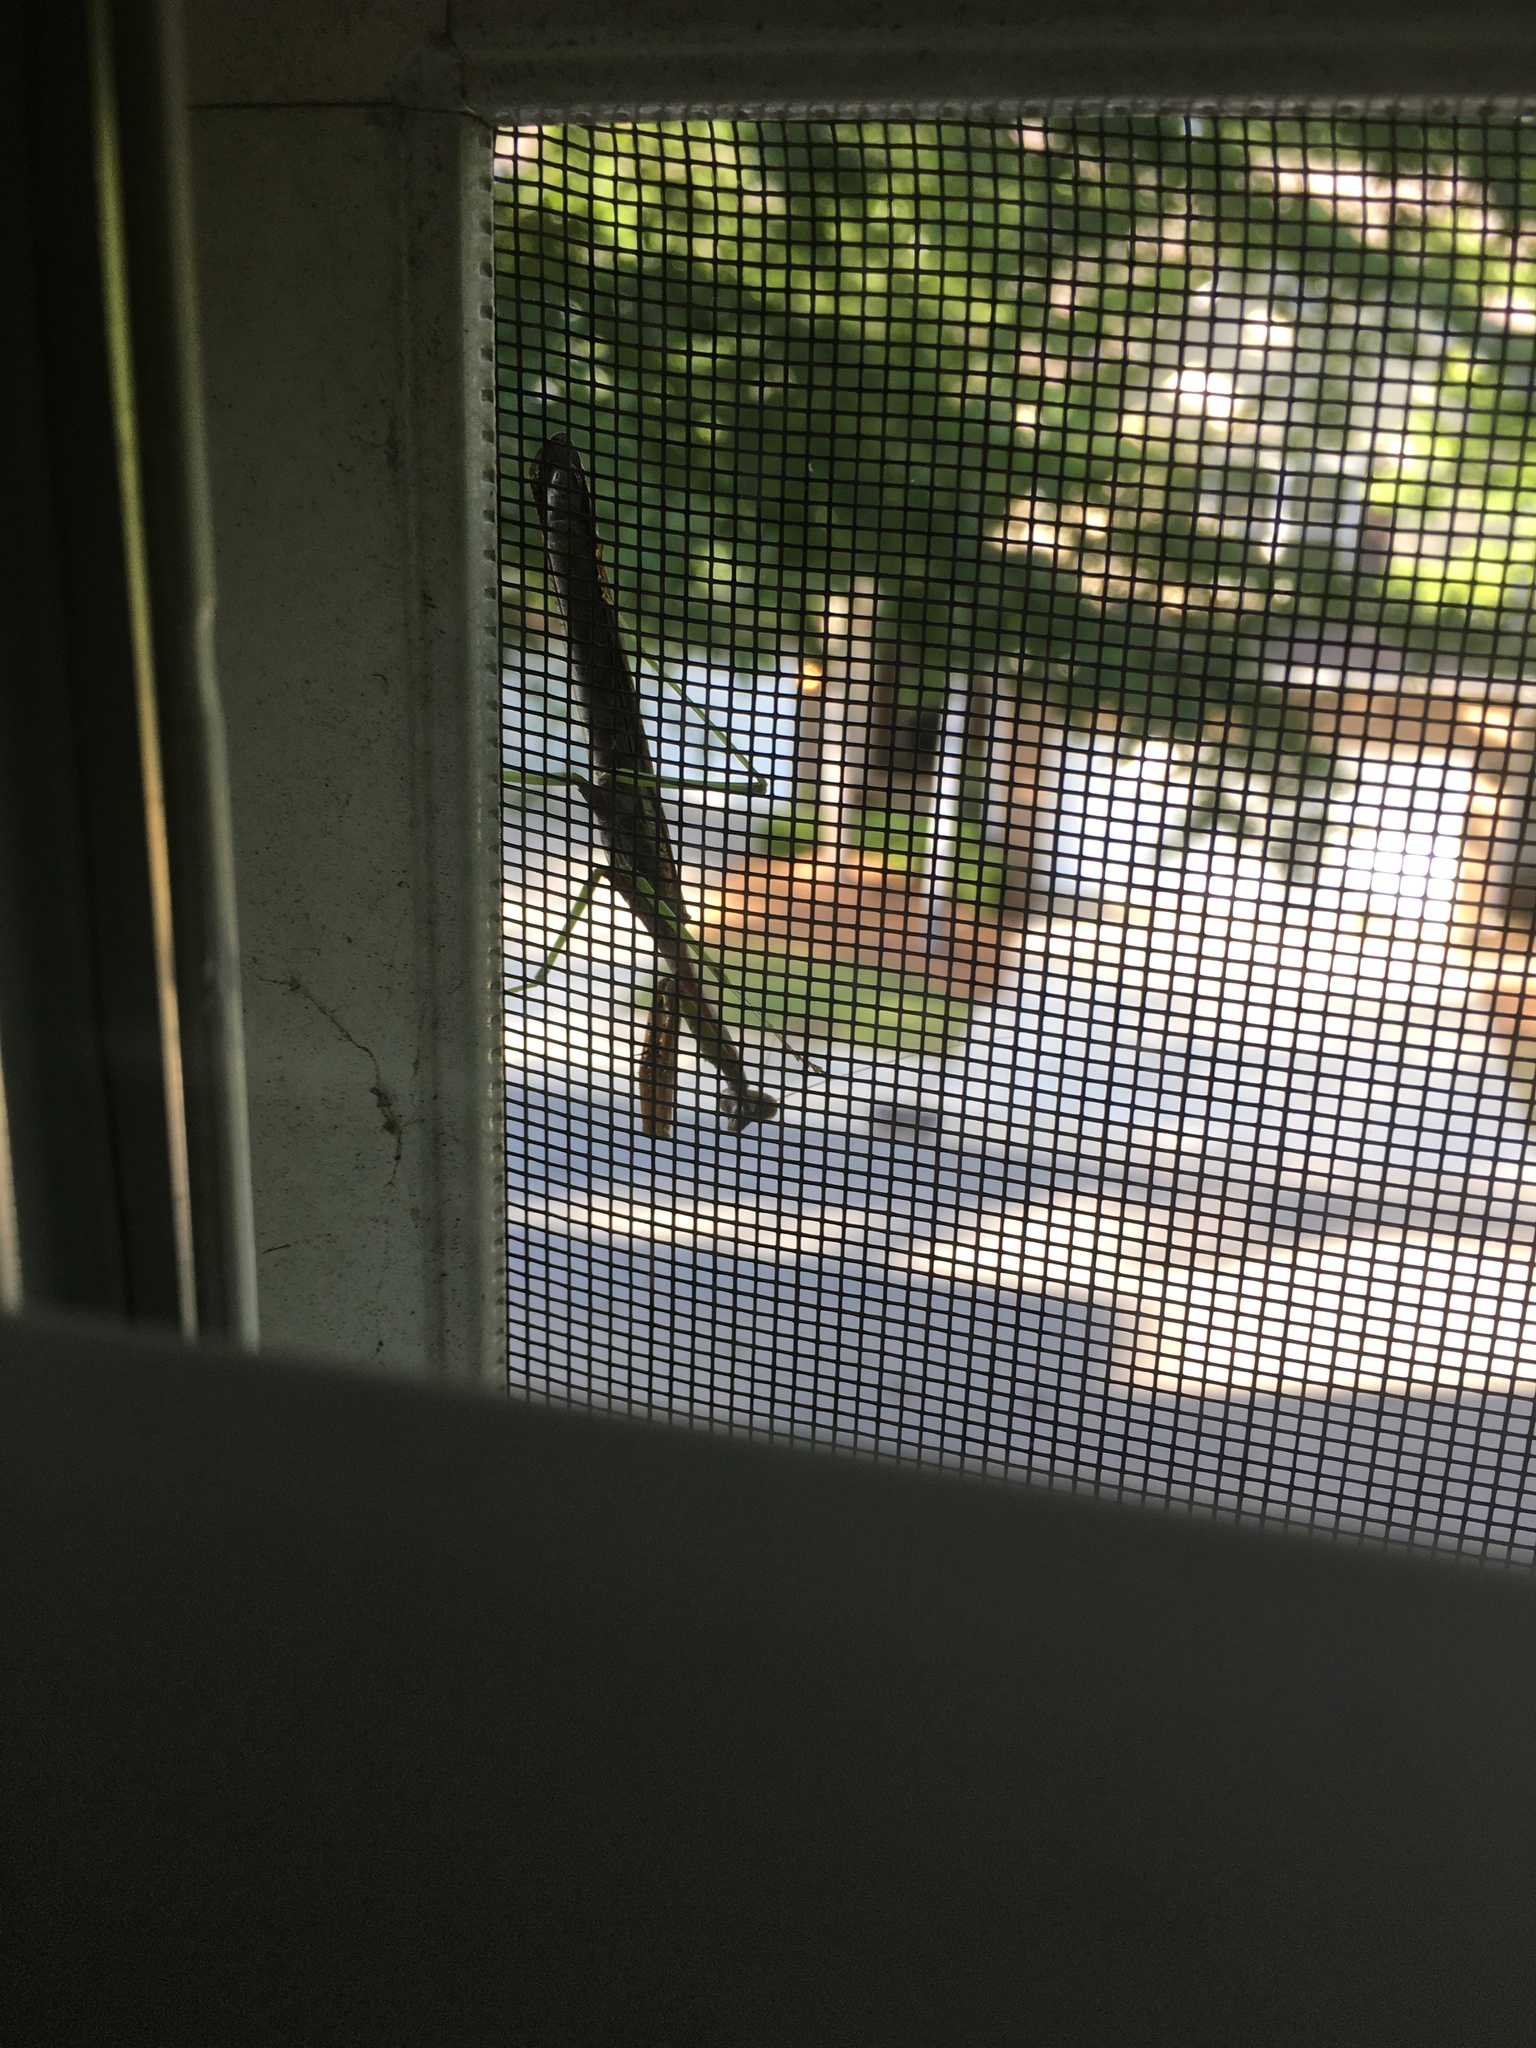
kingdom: Animalia
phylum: Arthropoda
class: Insecta
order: Mantodea
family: Mantidae
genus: Stagmomantis
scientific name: Stagmomantis carolina
